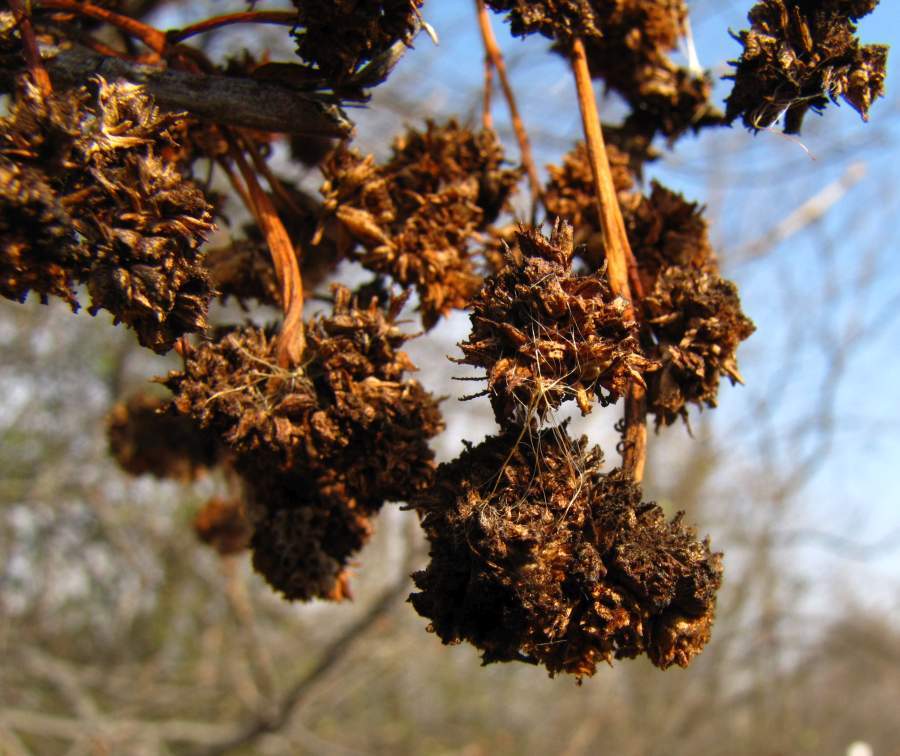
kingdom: Animalia
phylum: Arthropoda
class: Arachnida
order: Trombidiformes
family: Eriophyidae
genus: Aceria
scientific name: Aceria fraxiniflora
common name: Ash flower gall mite
